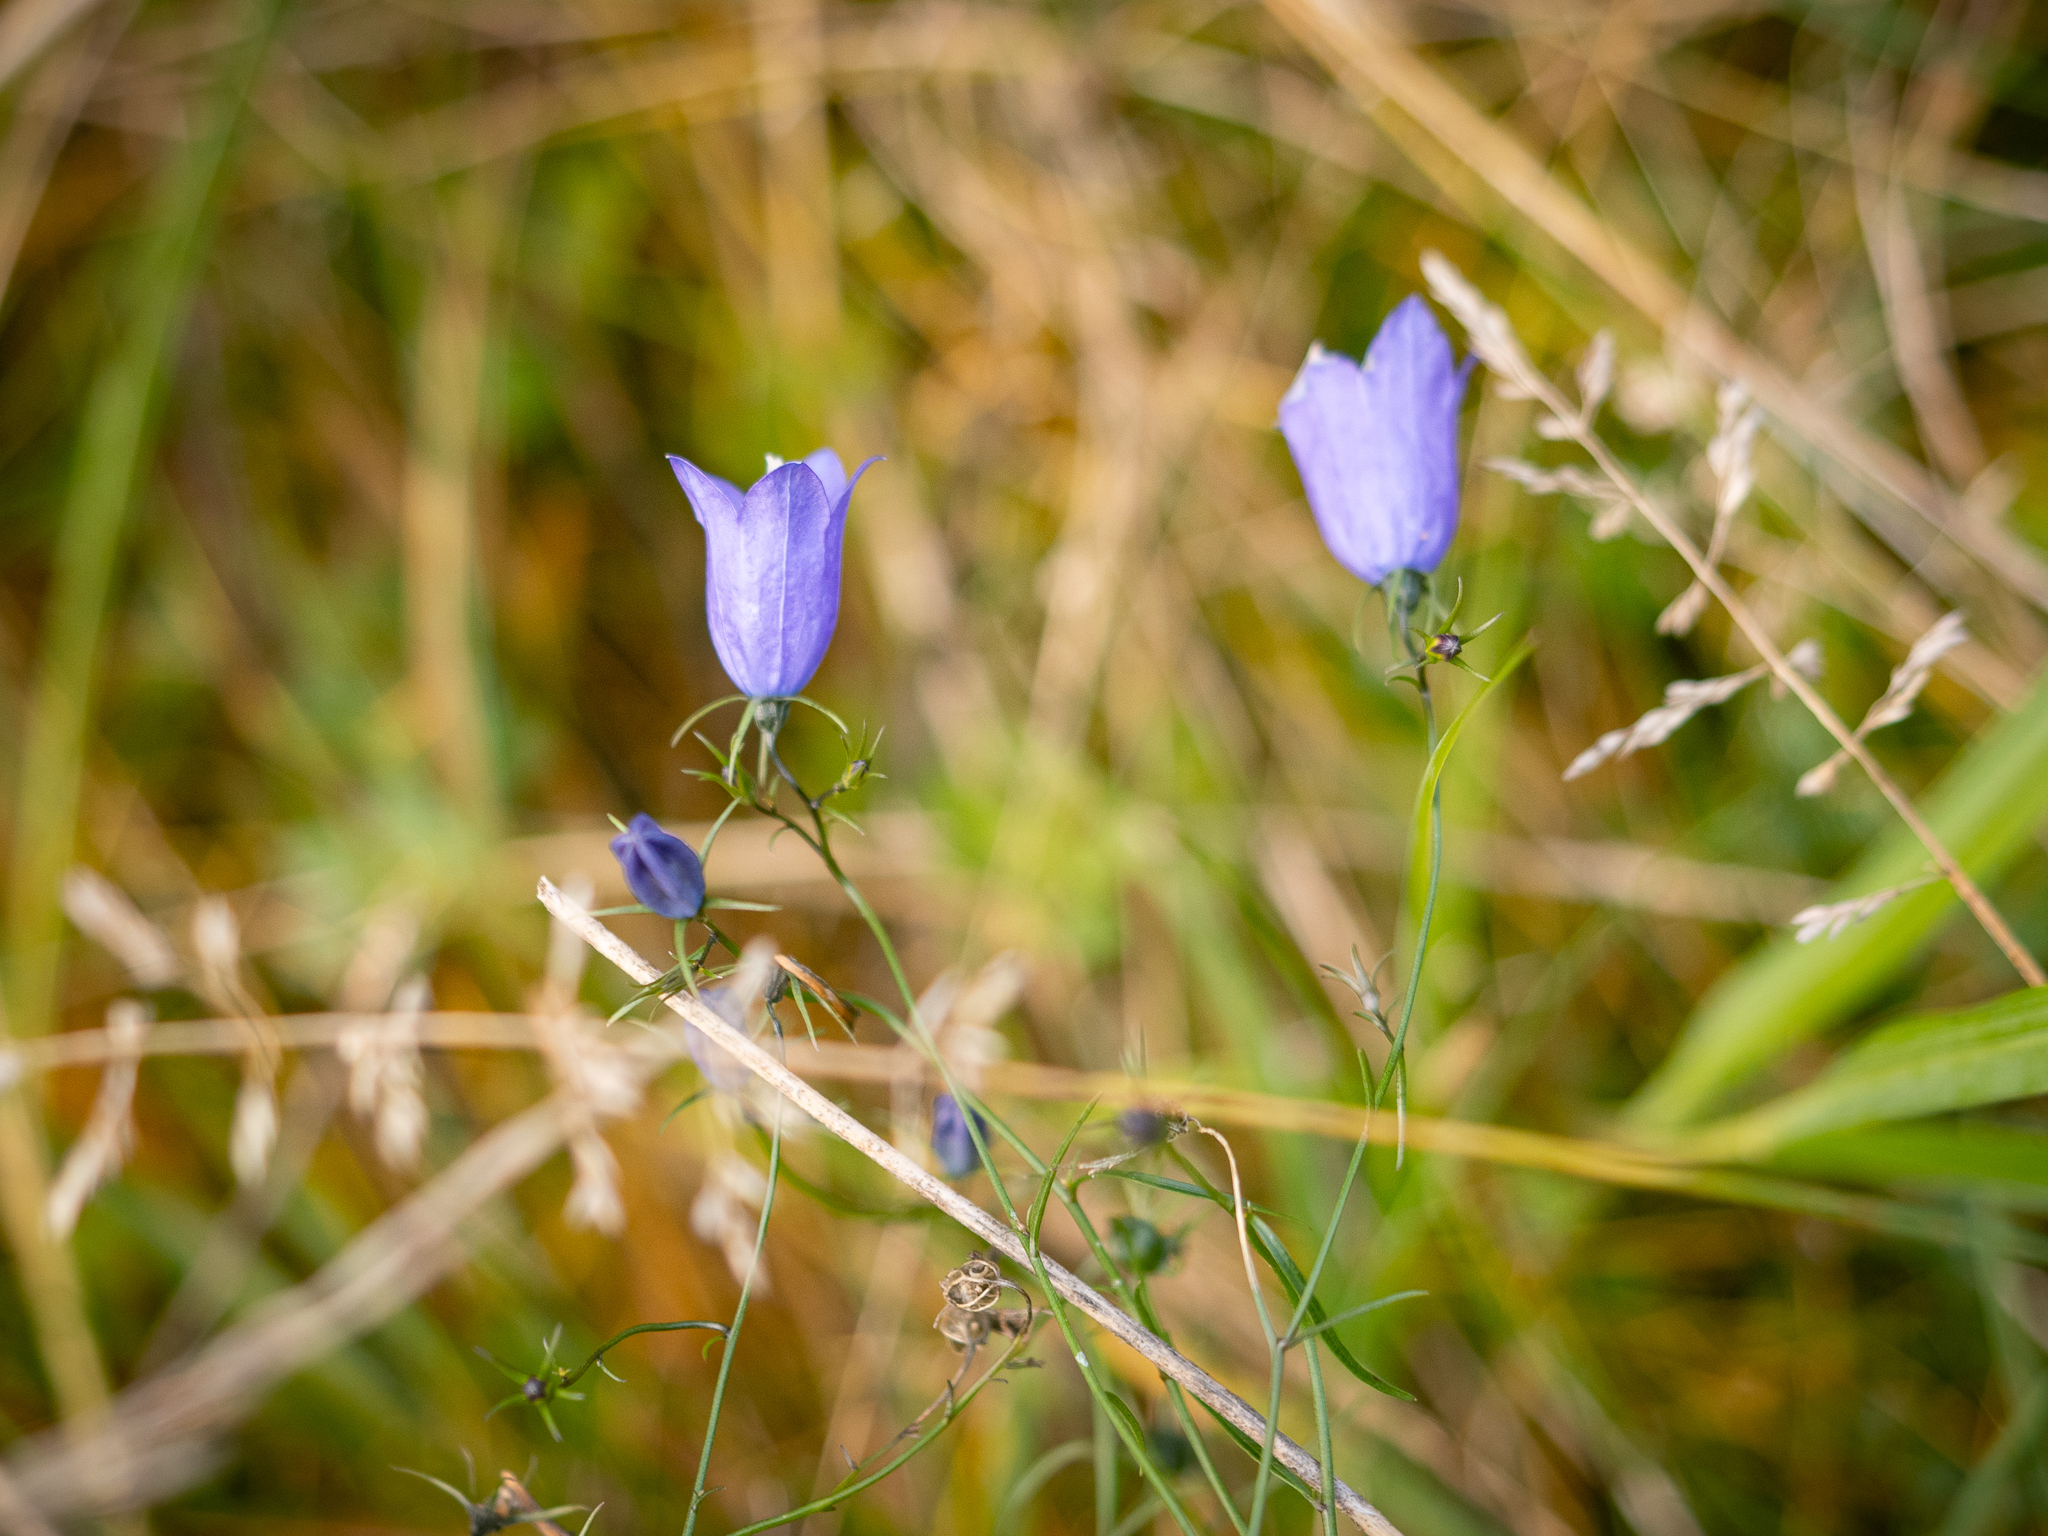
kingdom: Plantae
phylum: Tracheophyta
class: Magnoliopsida
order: Asterales
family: Campanulaceae
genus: Campanula
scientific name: Campanula rotundifolia
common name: Harebell
